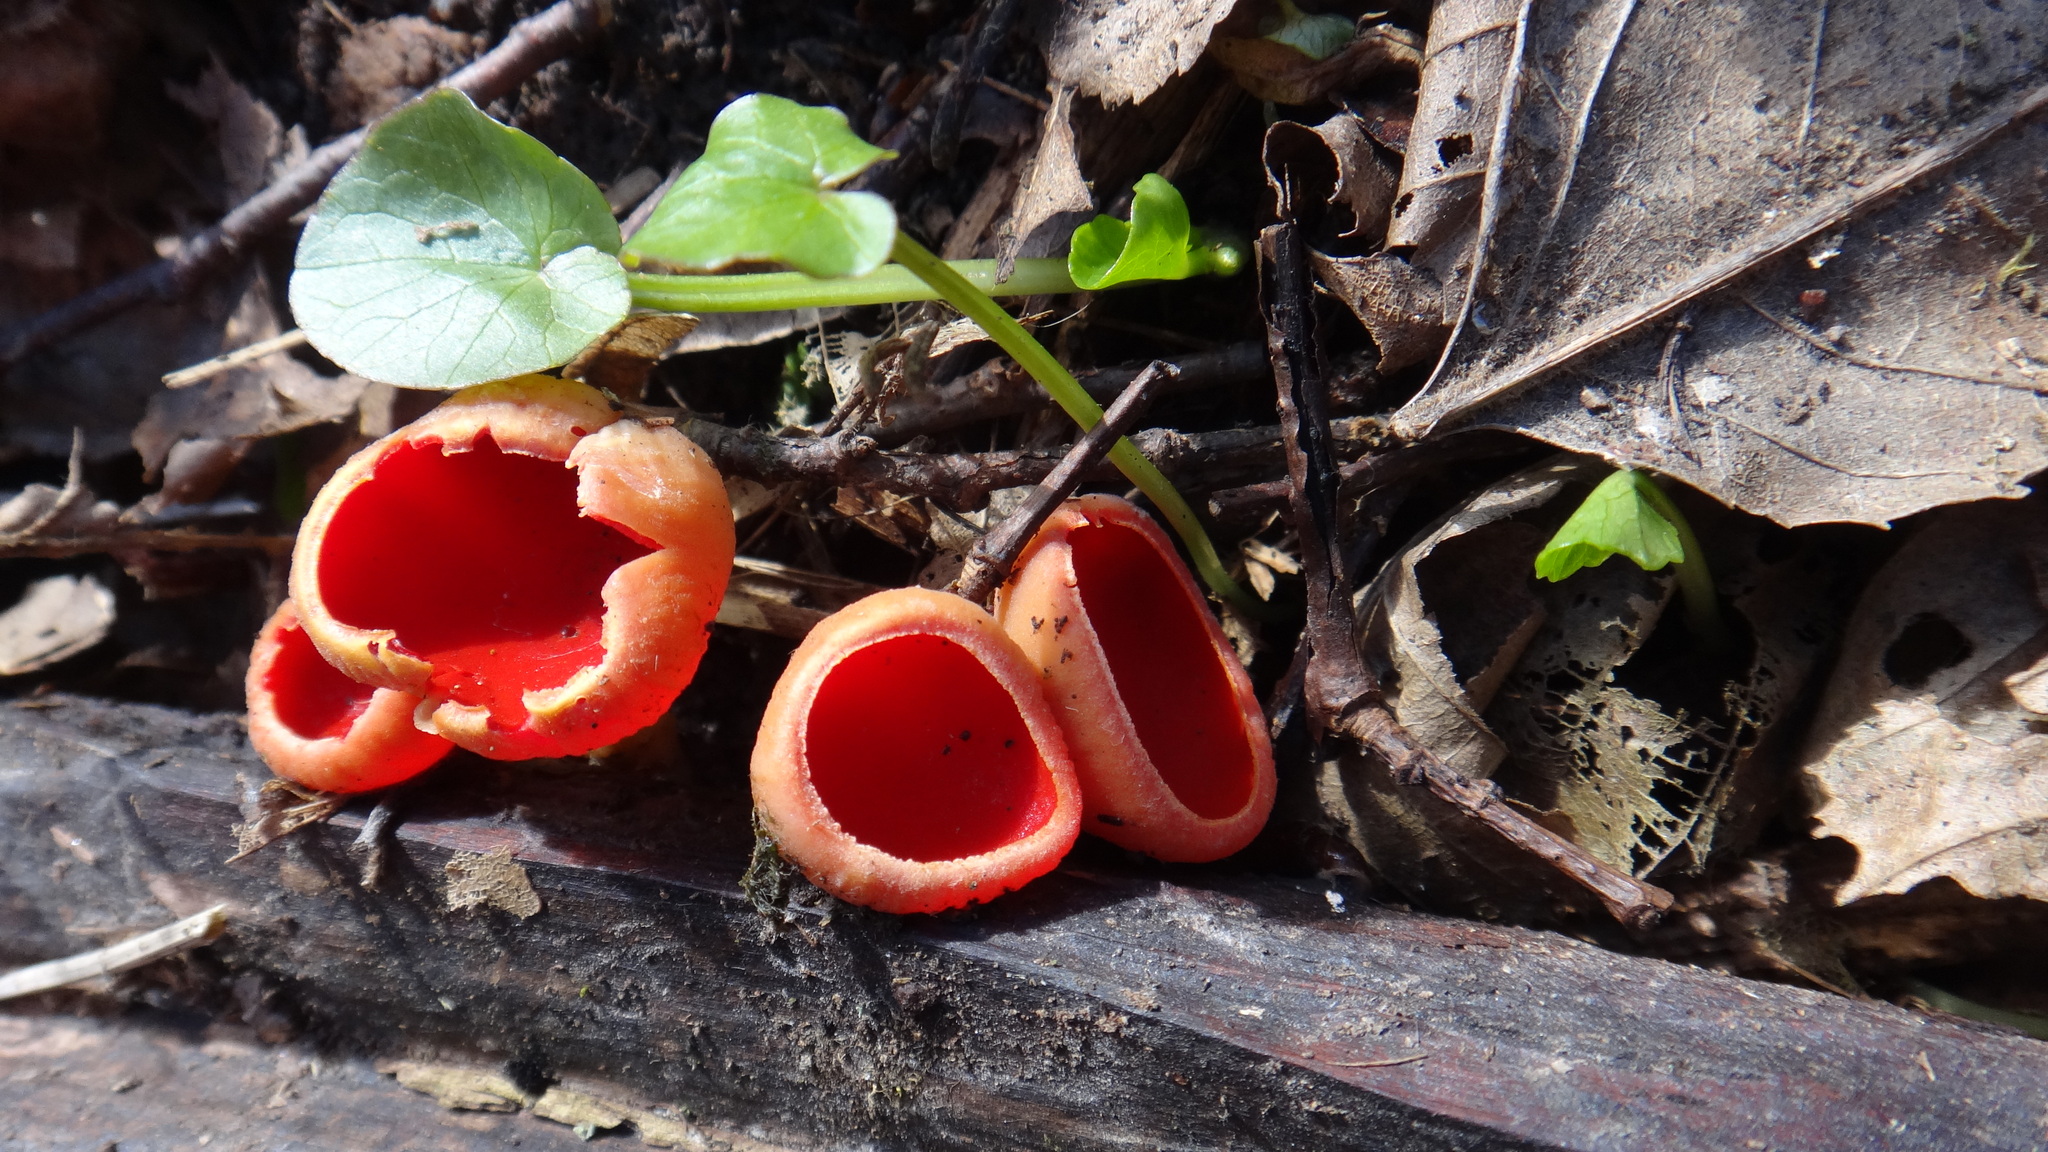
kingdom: Fungi
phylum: Ascomycota
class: Pezizomycetes
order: Pezizales
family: Sarcoscyphaceae
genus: Sarcoscypha
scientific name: Sarcoscypha
